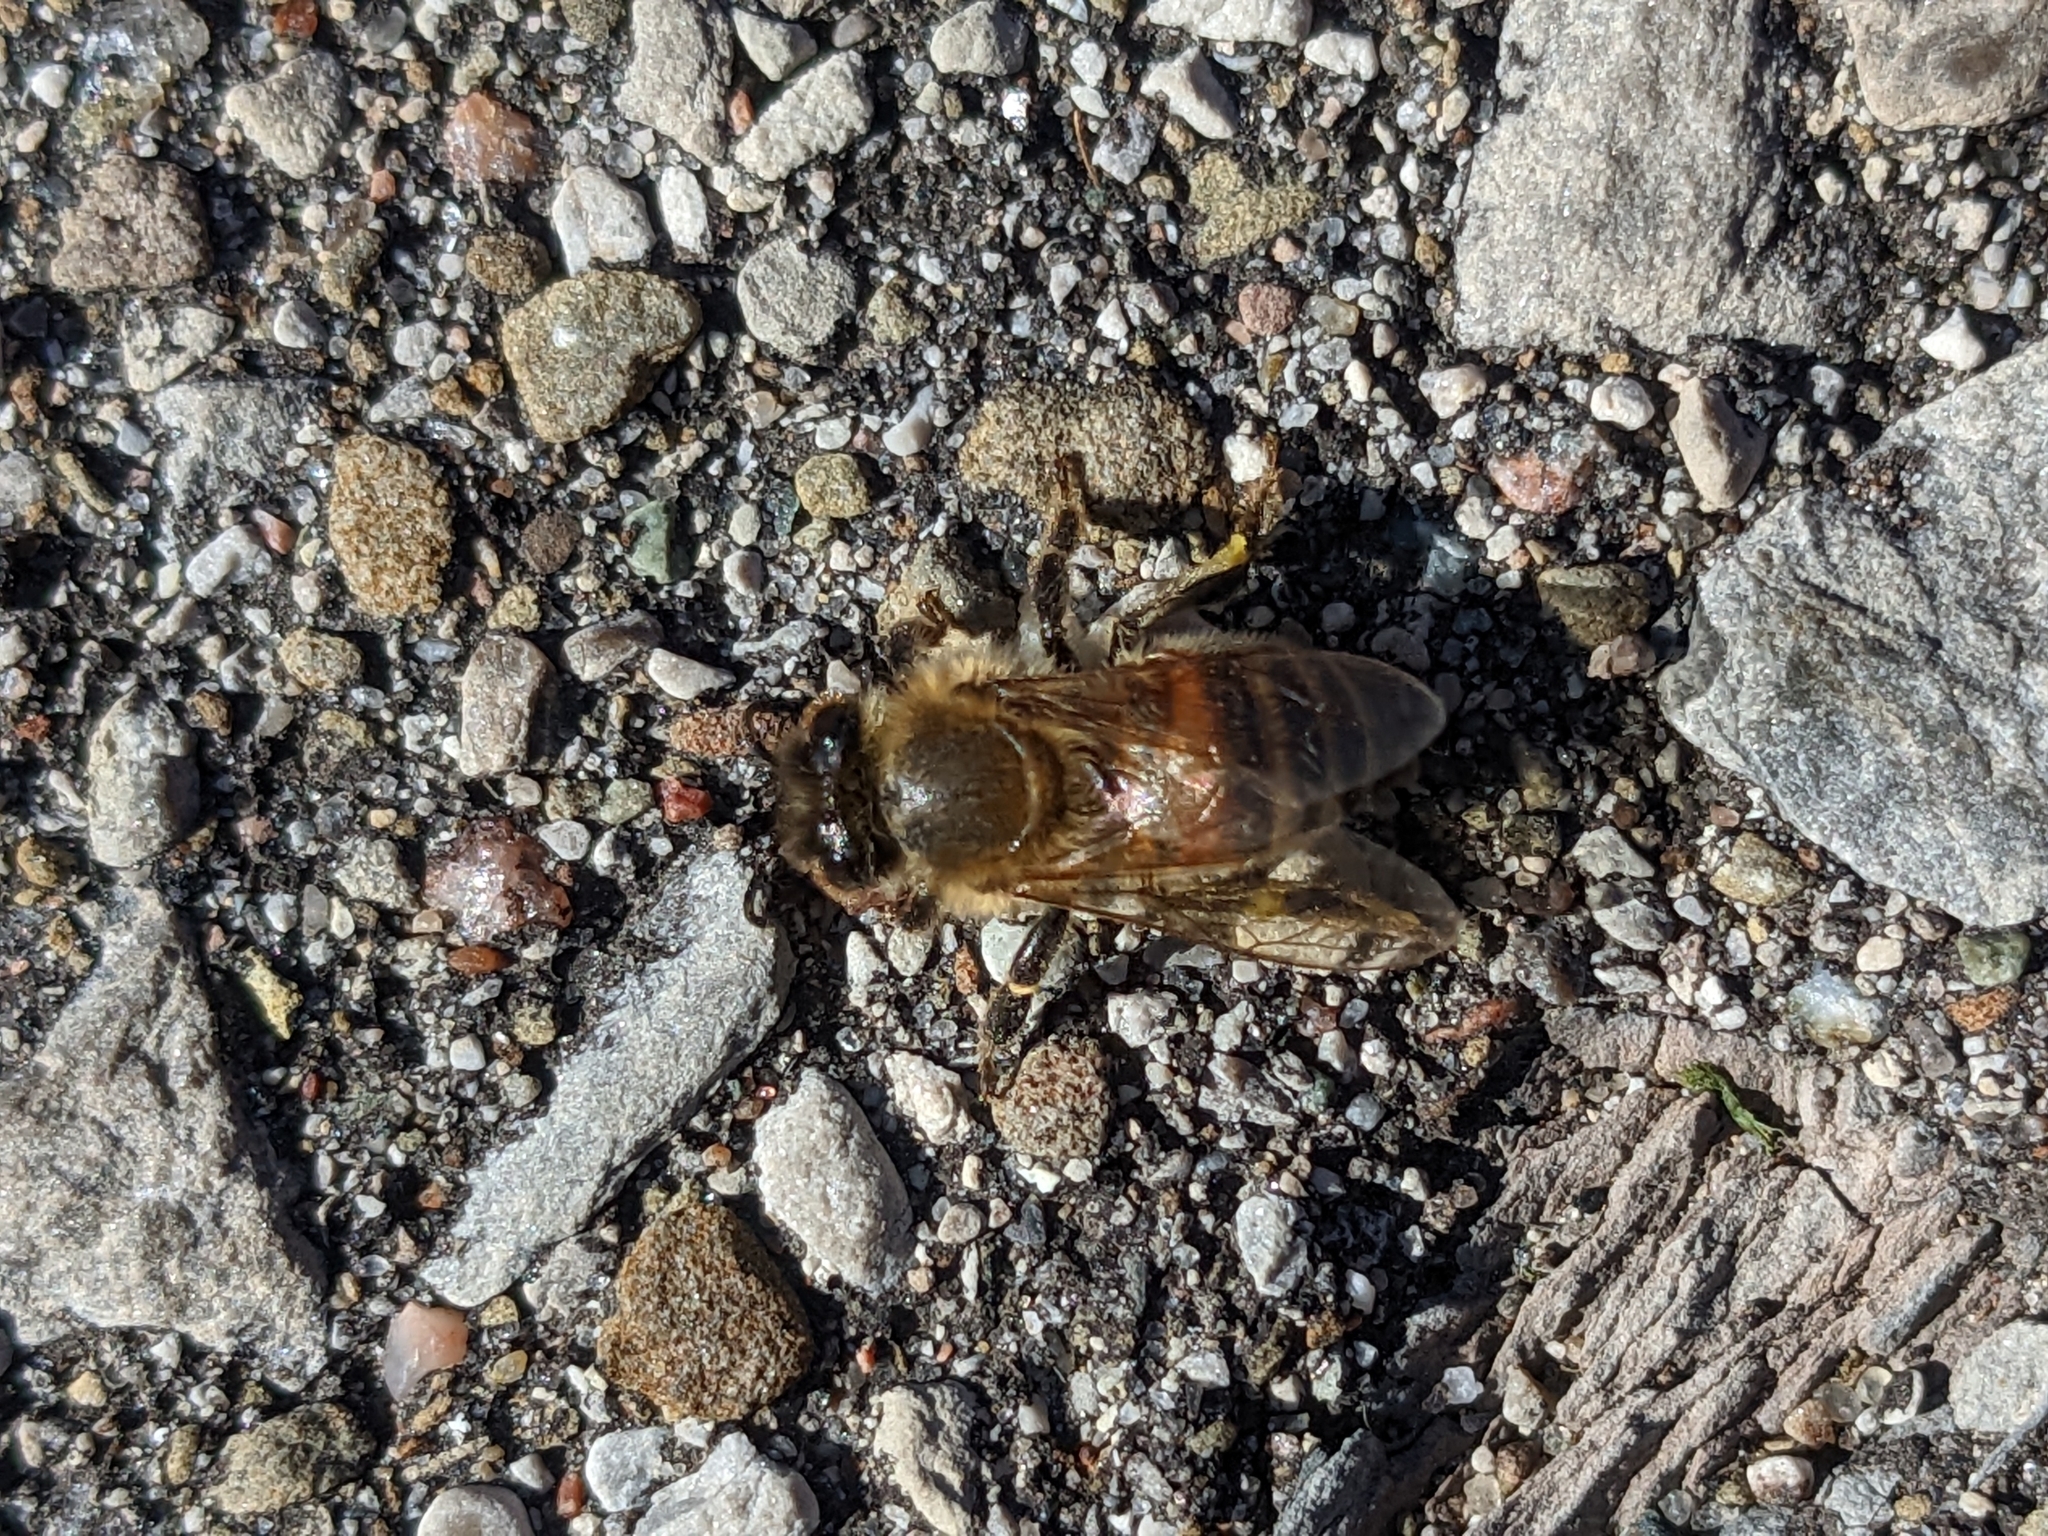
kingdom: Animalia
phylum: Arthropoda
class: Insecta
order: Hymenoptera
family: Apidae
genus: Apis
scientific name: Apis mellifera
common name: Honey bee
